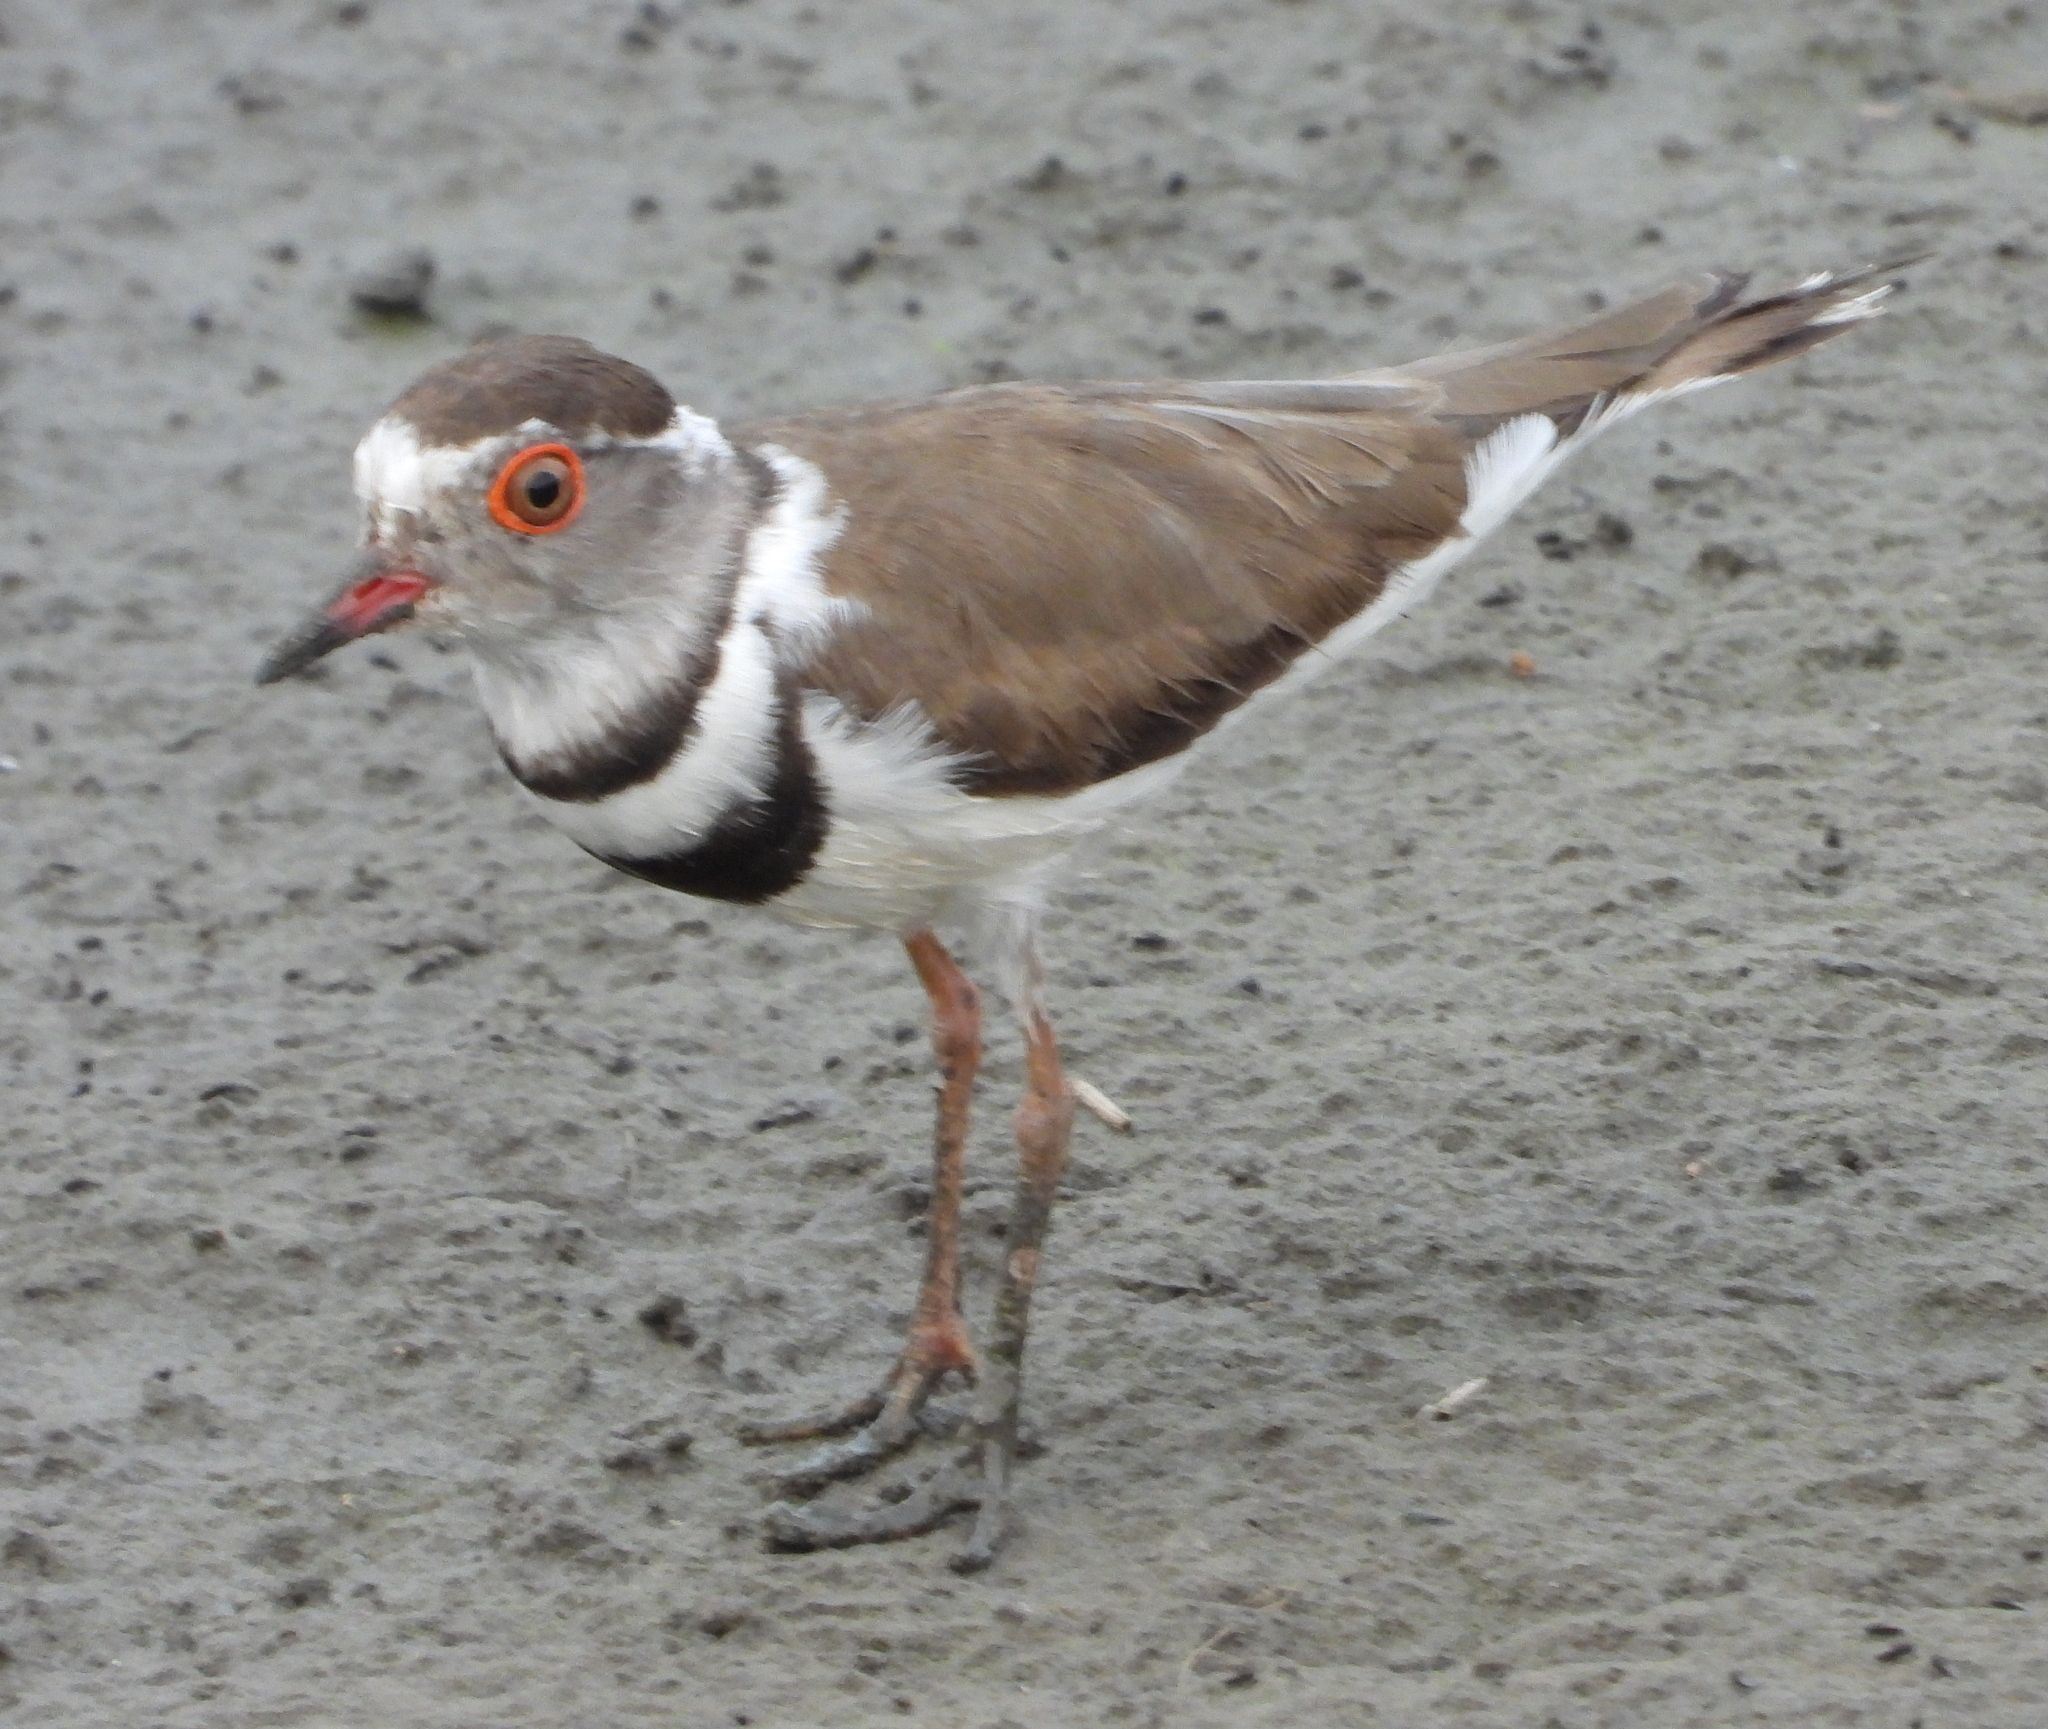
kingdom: Animalia
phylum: Chordata
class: Aves
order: Charadriiformes
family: Charadriidae
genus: Charadrius
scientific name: Charadrius tricollaris
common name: Three-banded plover
